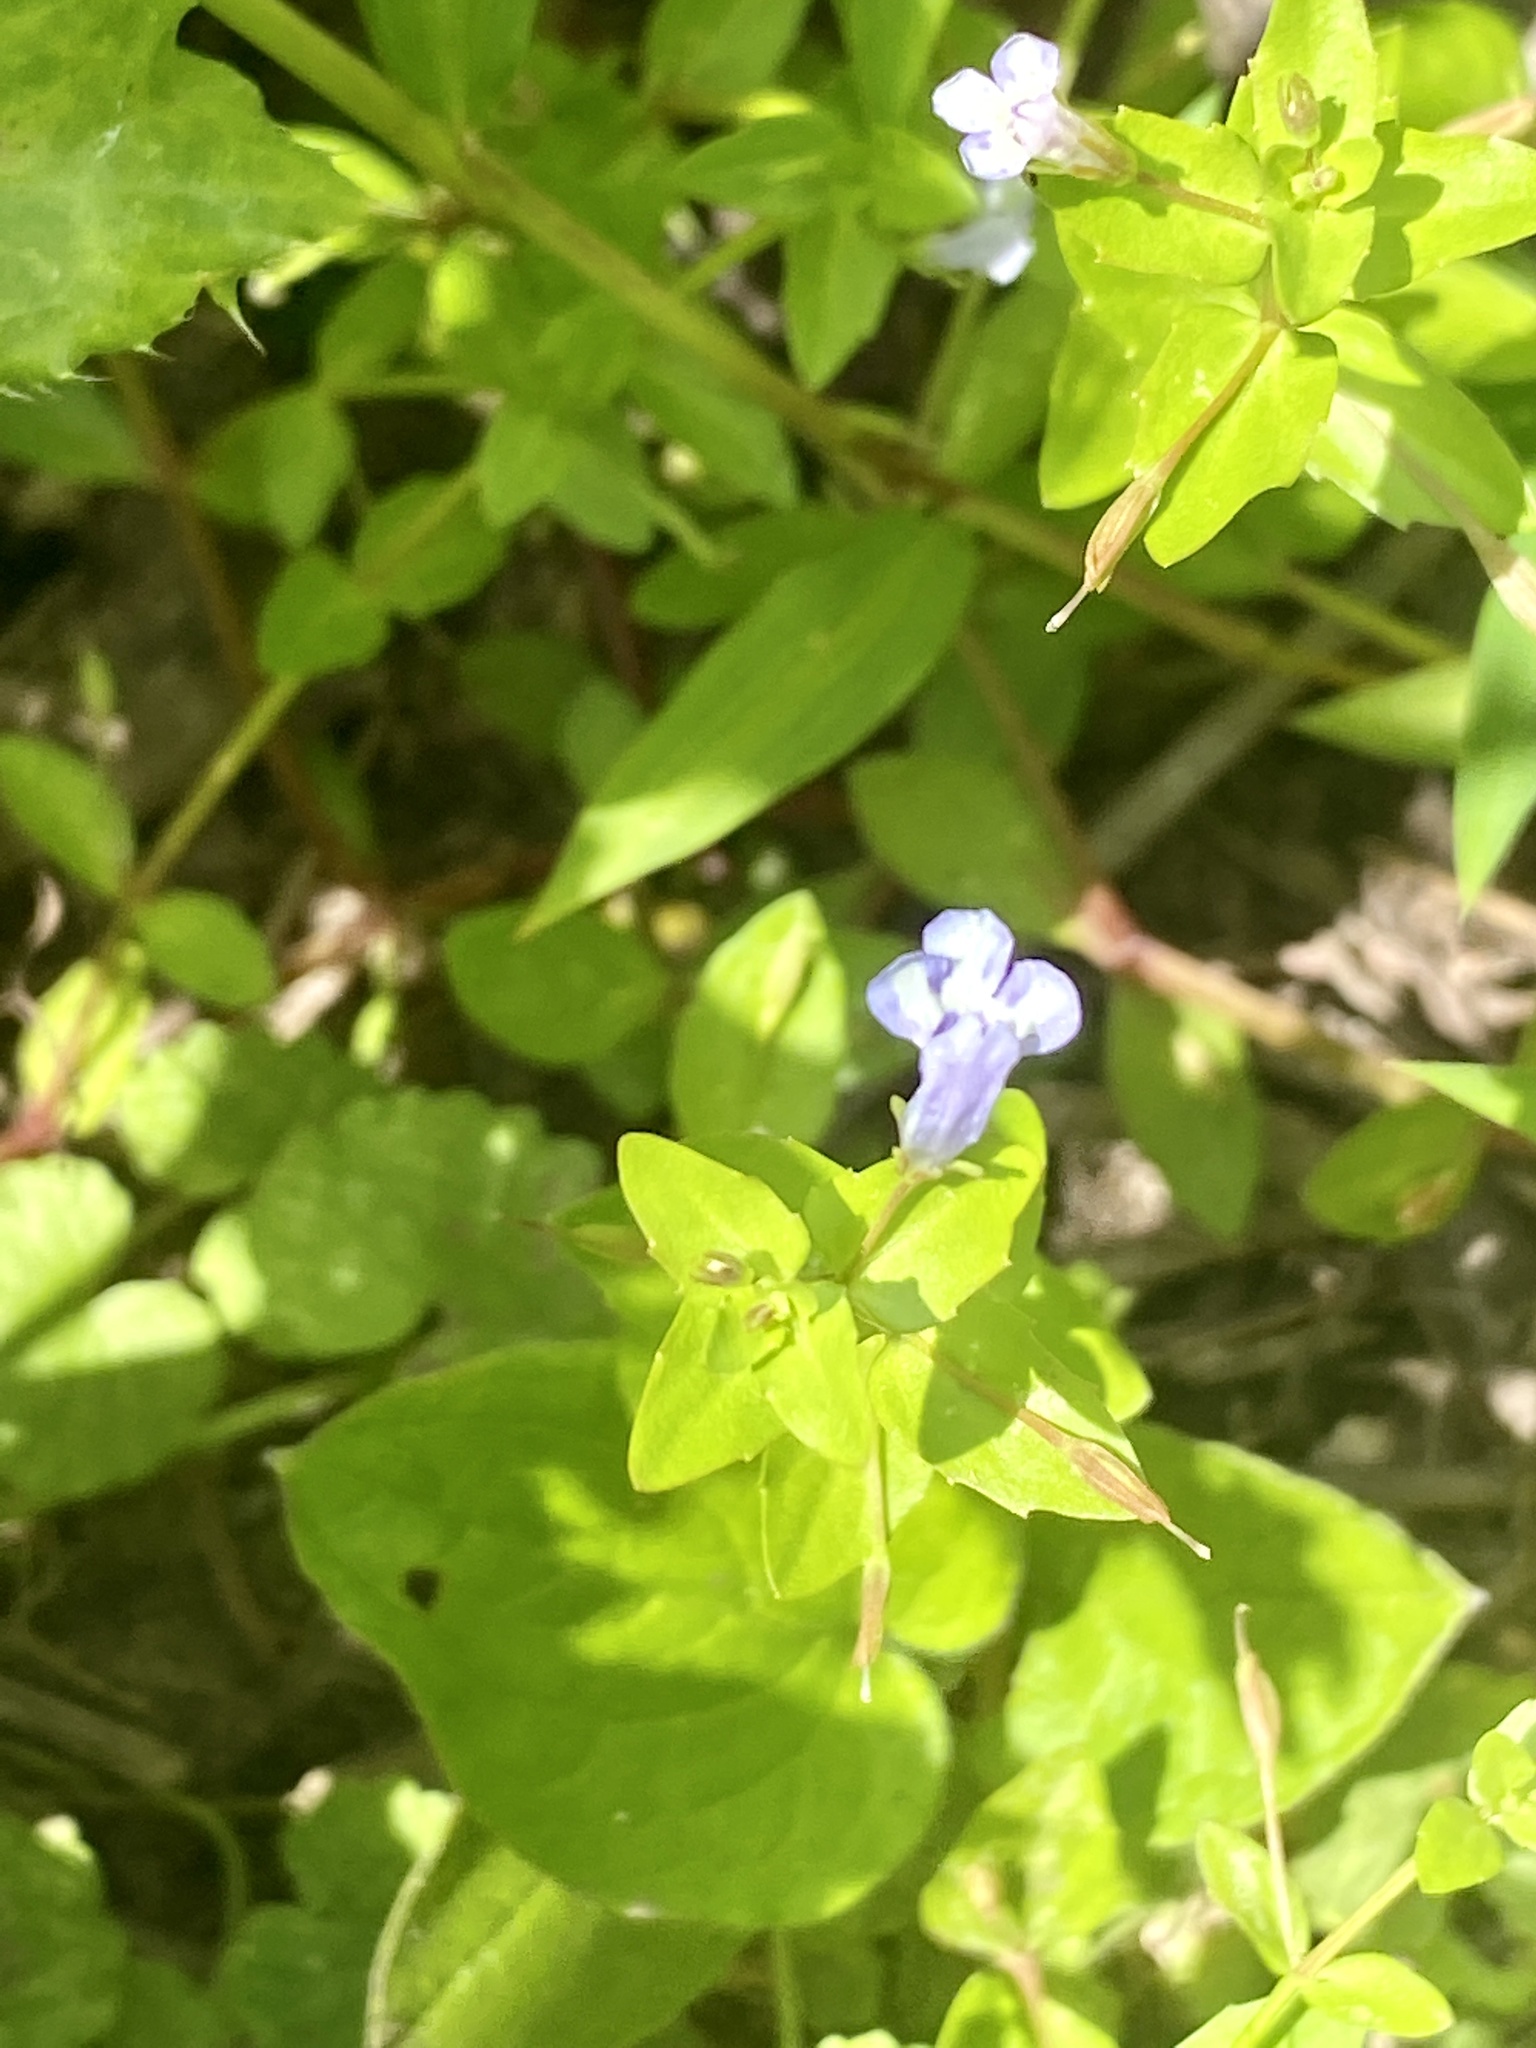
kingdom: Plantae
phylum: Tracheophyta
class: Magnoliopsida
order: Lamiales
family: Linderniaceae
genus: Lindernia
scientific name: Lindernia dubia
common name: Annual false pimpernel
